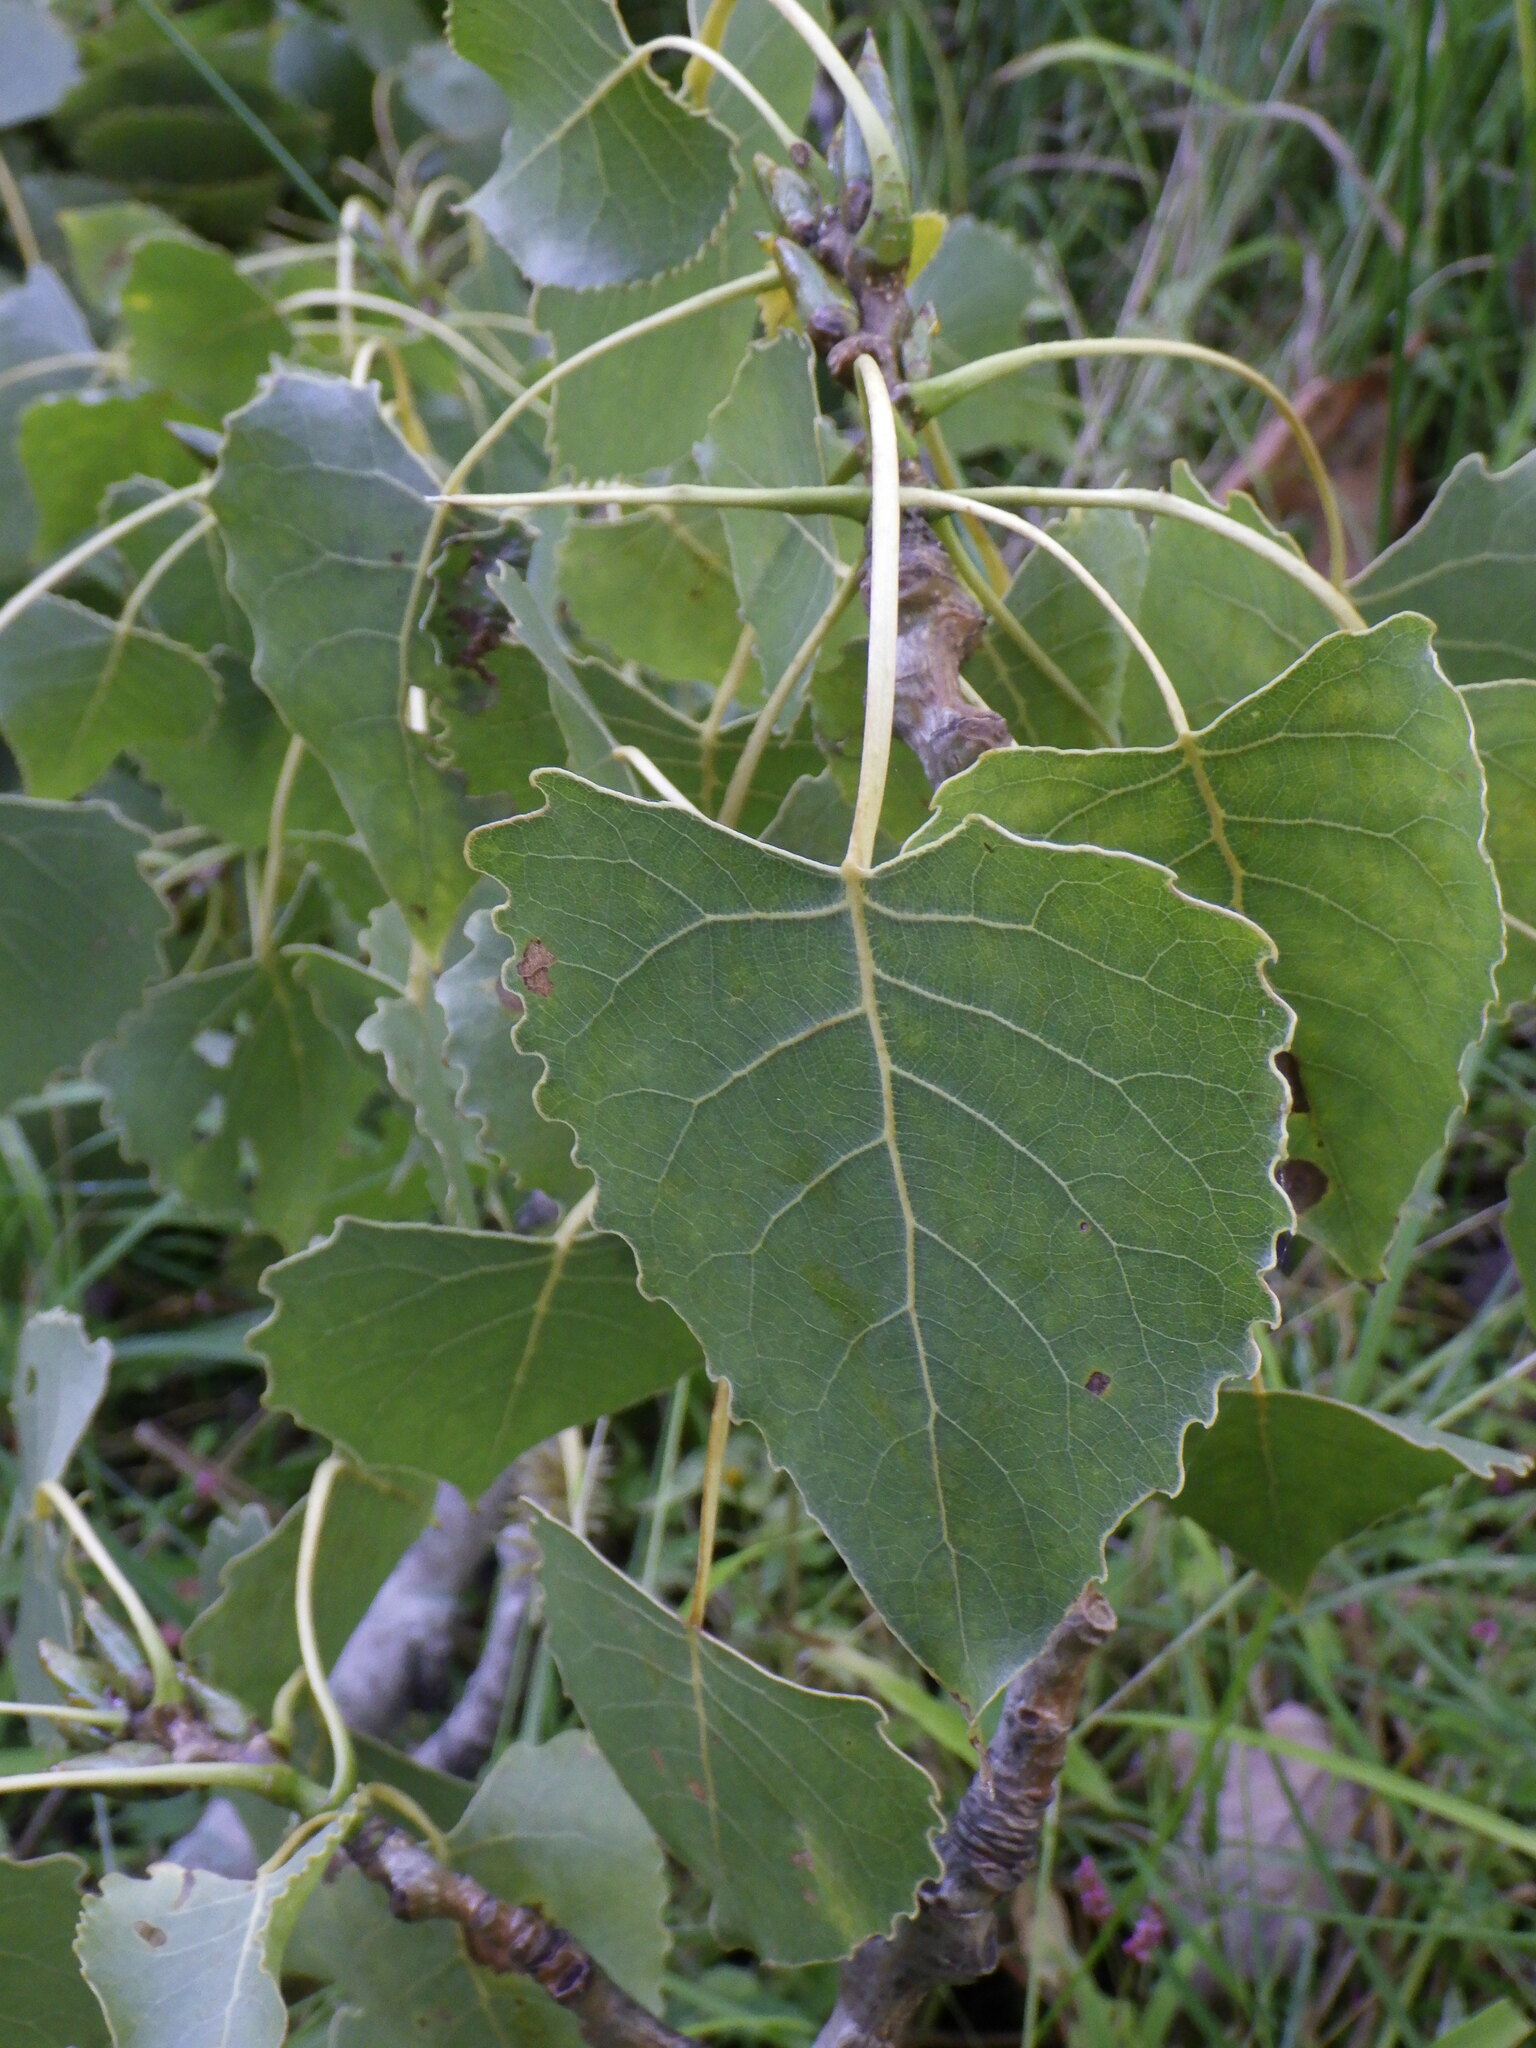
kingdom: Plantae
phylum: Tracheophyta
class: Magnoliopsida
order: Malpighiales
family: Salicaceae
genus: Populus
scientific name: Populus deltoides
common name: Eastern cottonwood
